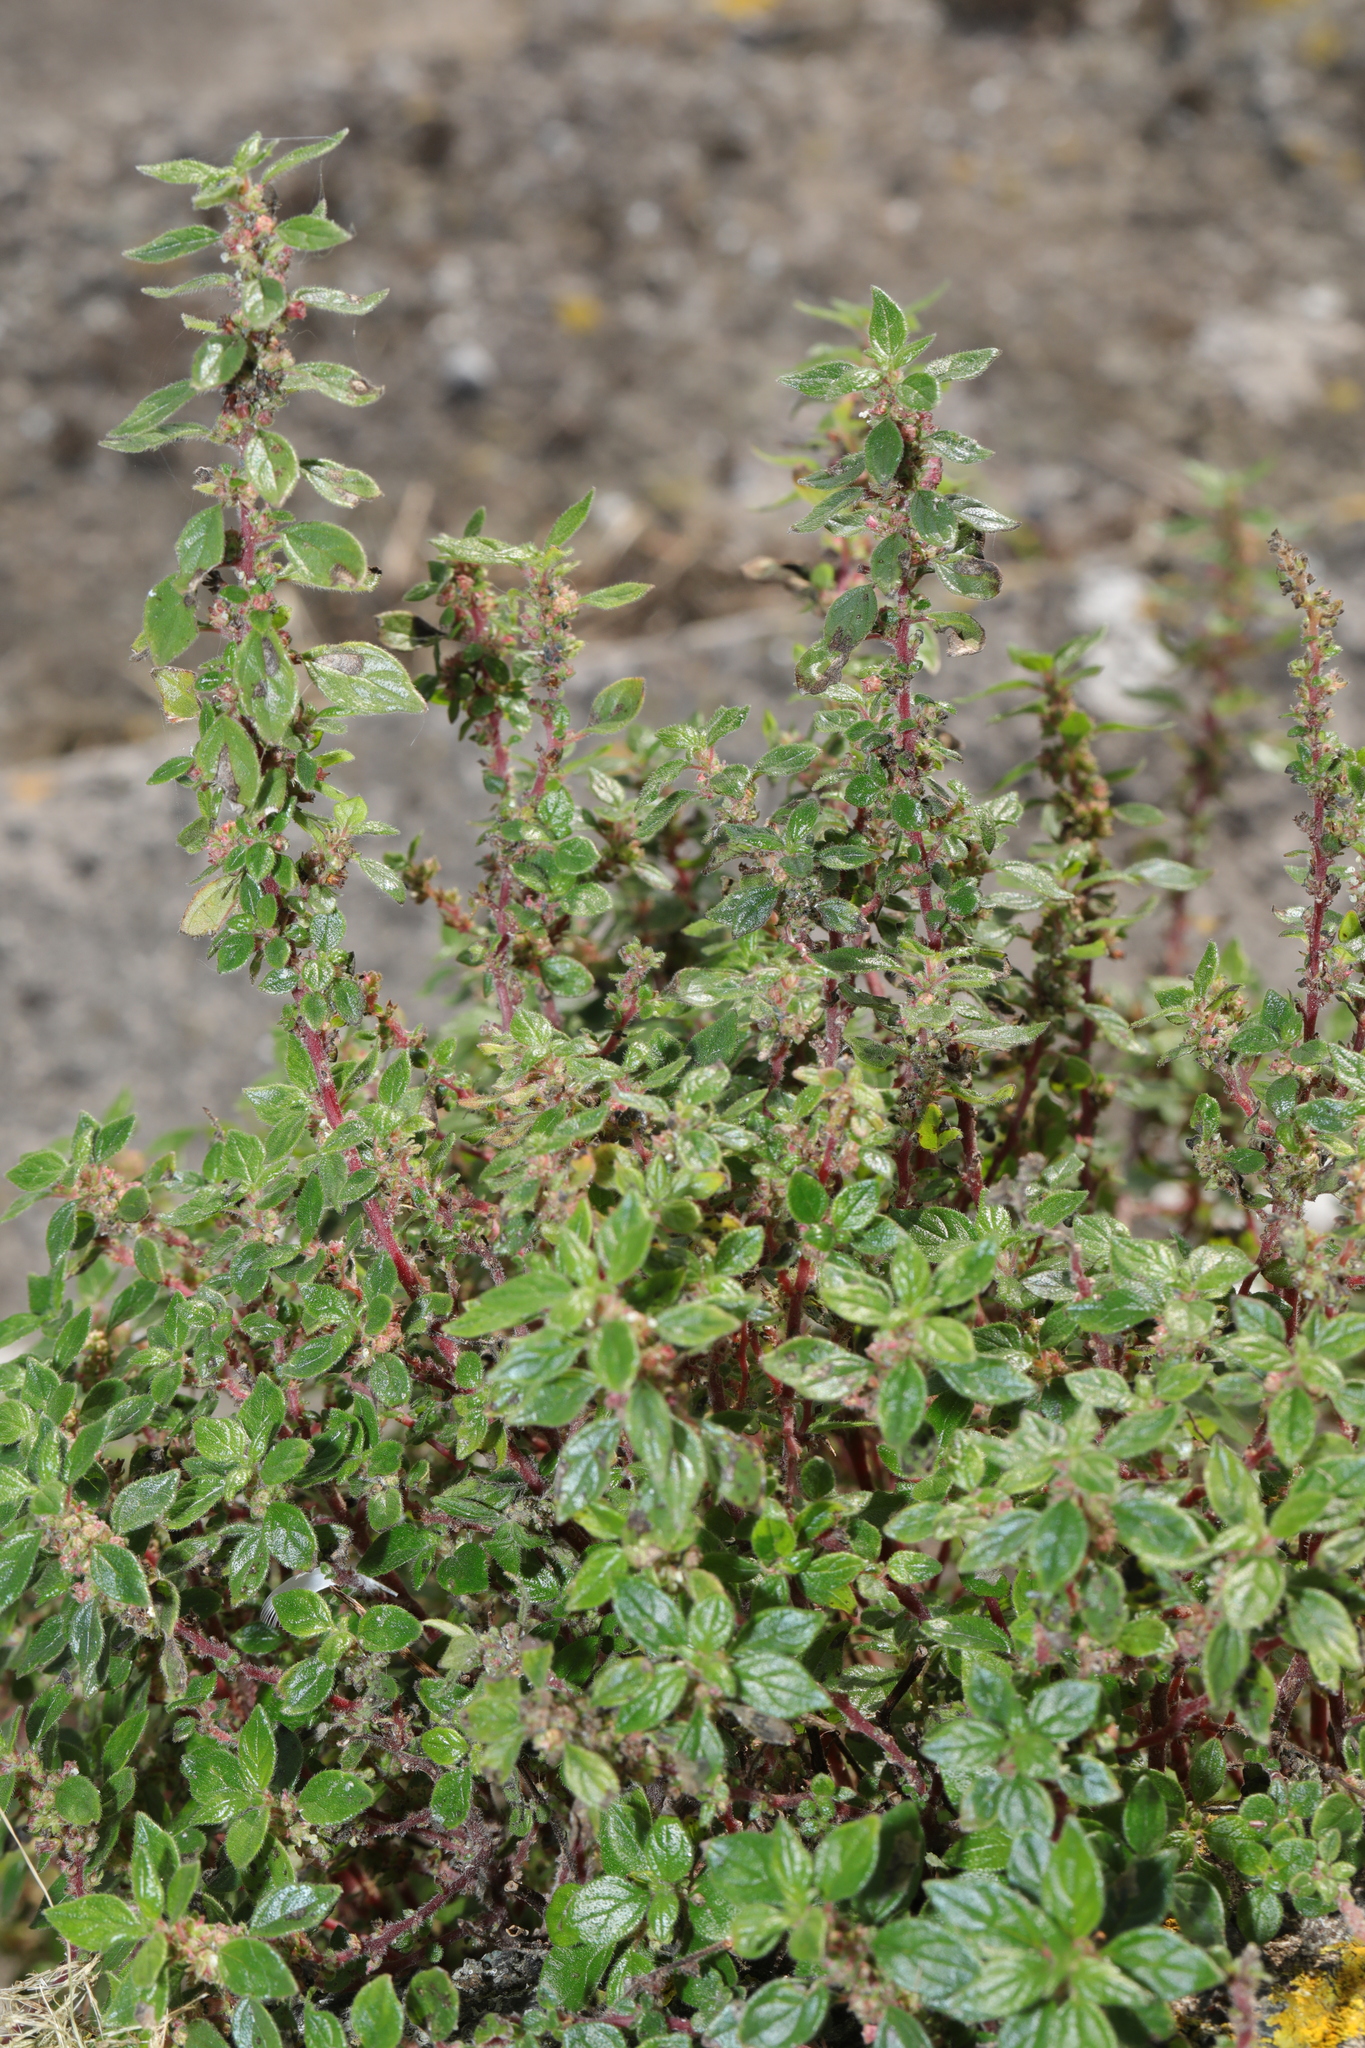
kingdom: Plantae
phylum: Tracheophyta
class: Magnoliopsida
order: Rosales
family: Urticaceae
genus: Parietaria
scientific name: Parietaria judaica
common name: Pellitory-of-the-wall
